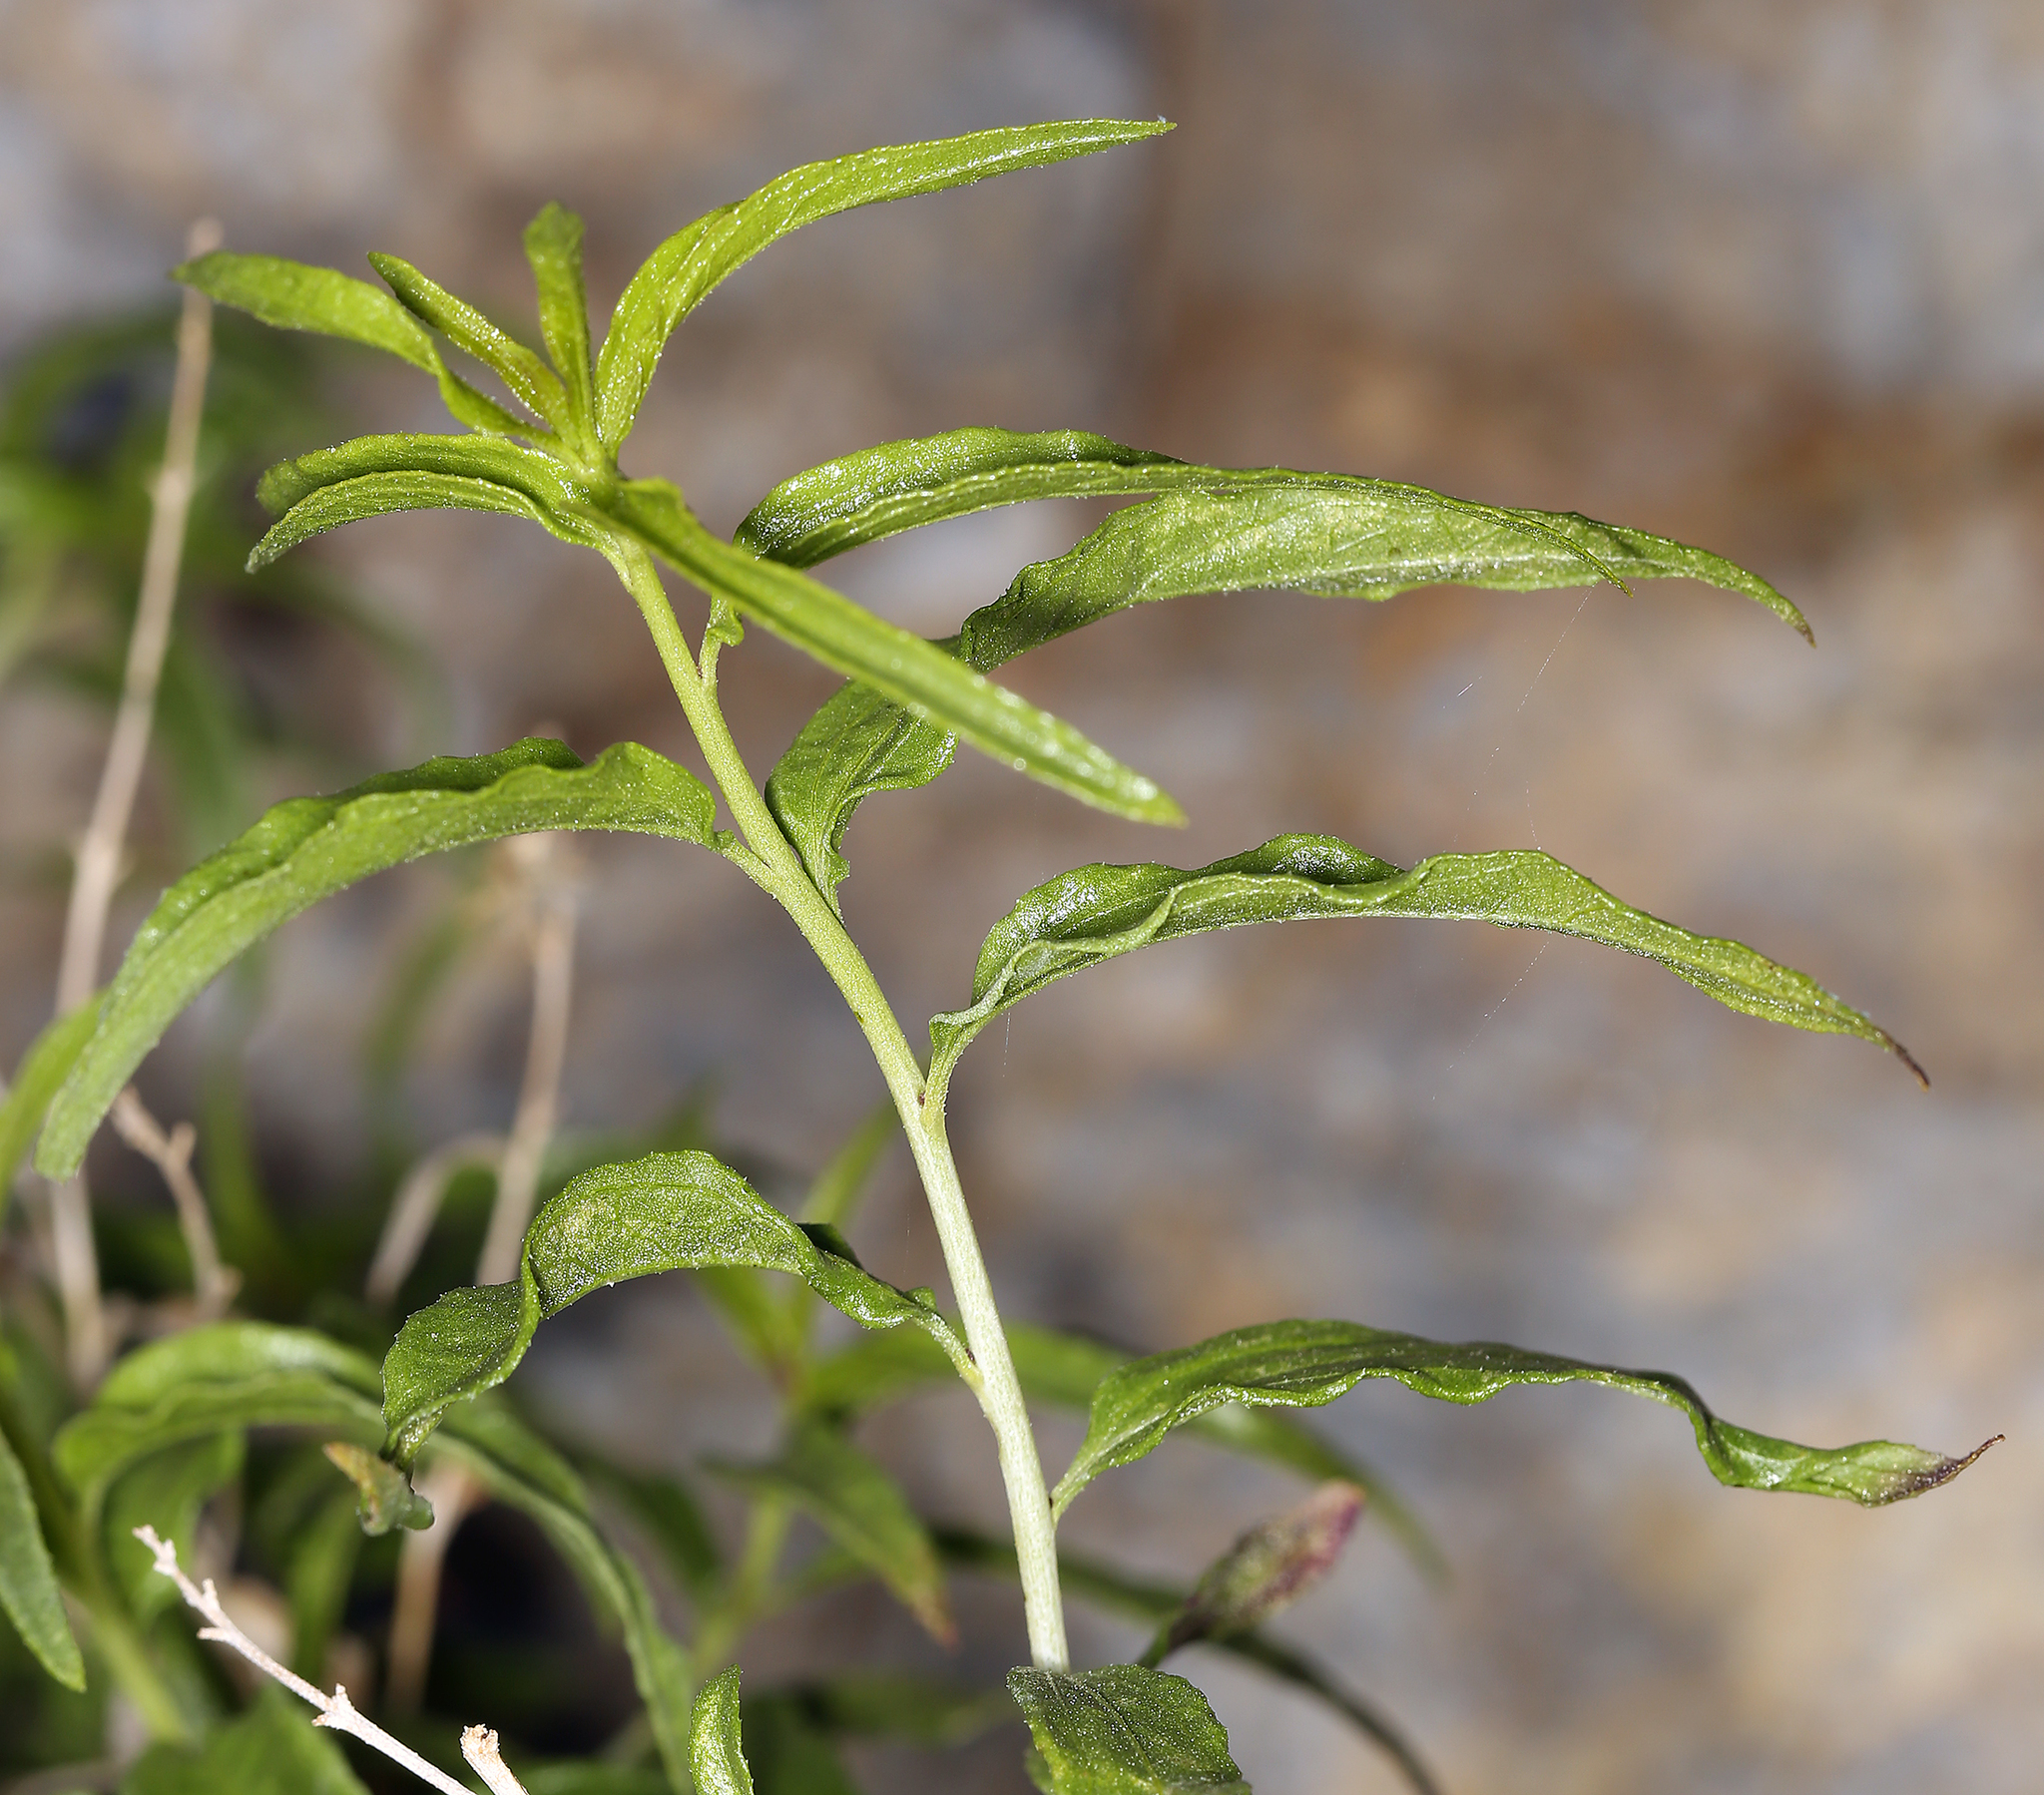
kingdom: Plantae
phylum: Tracheophyta
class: Magnoliopsida
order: Asterales
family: Asteraceae
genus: Brickellia
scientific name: Brickellia longifolia
